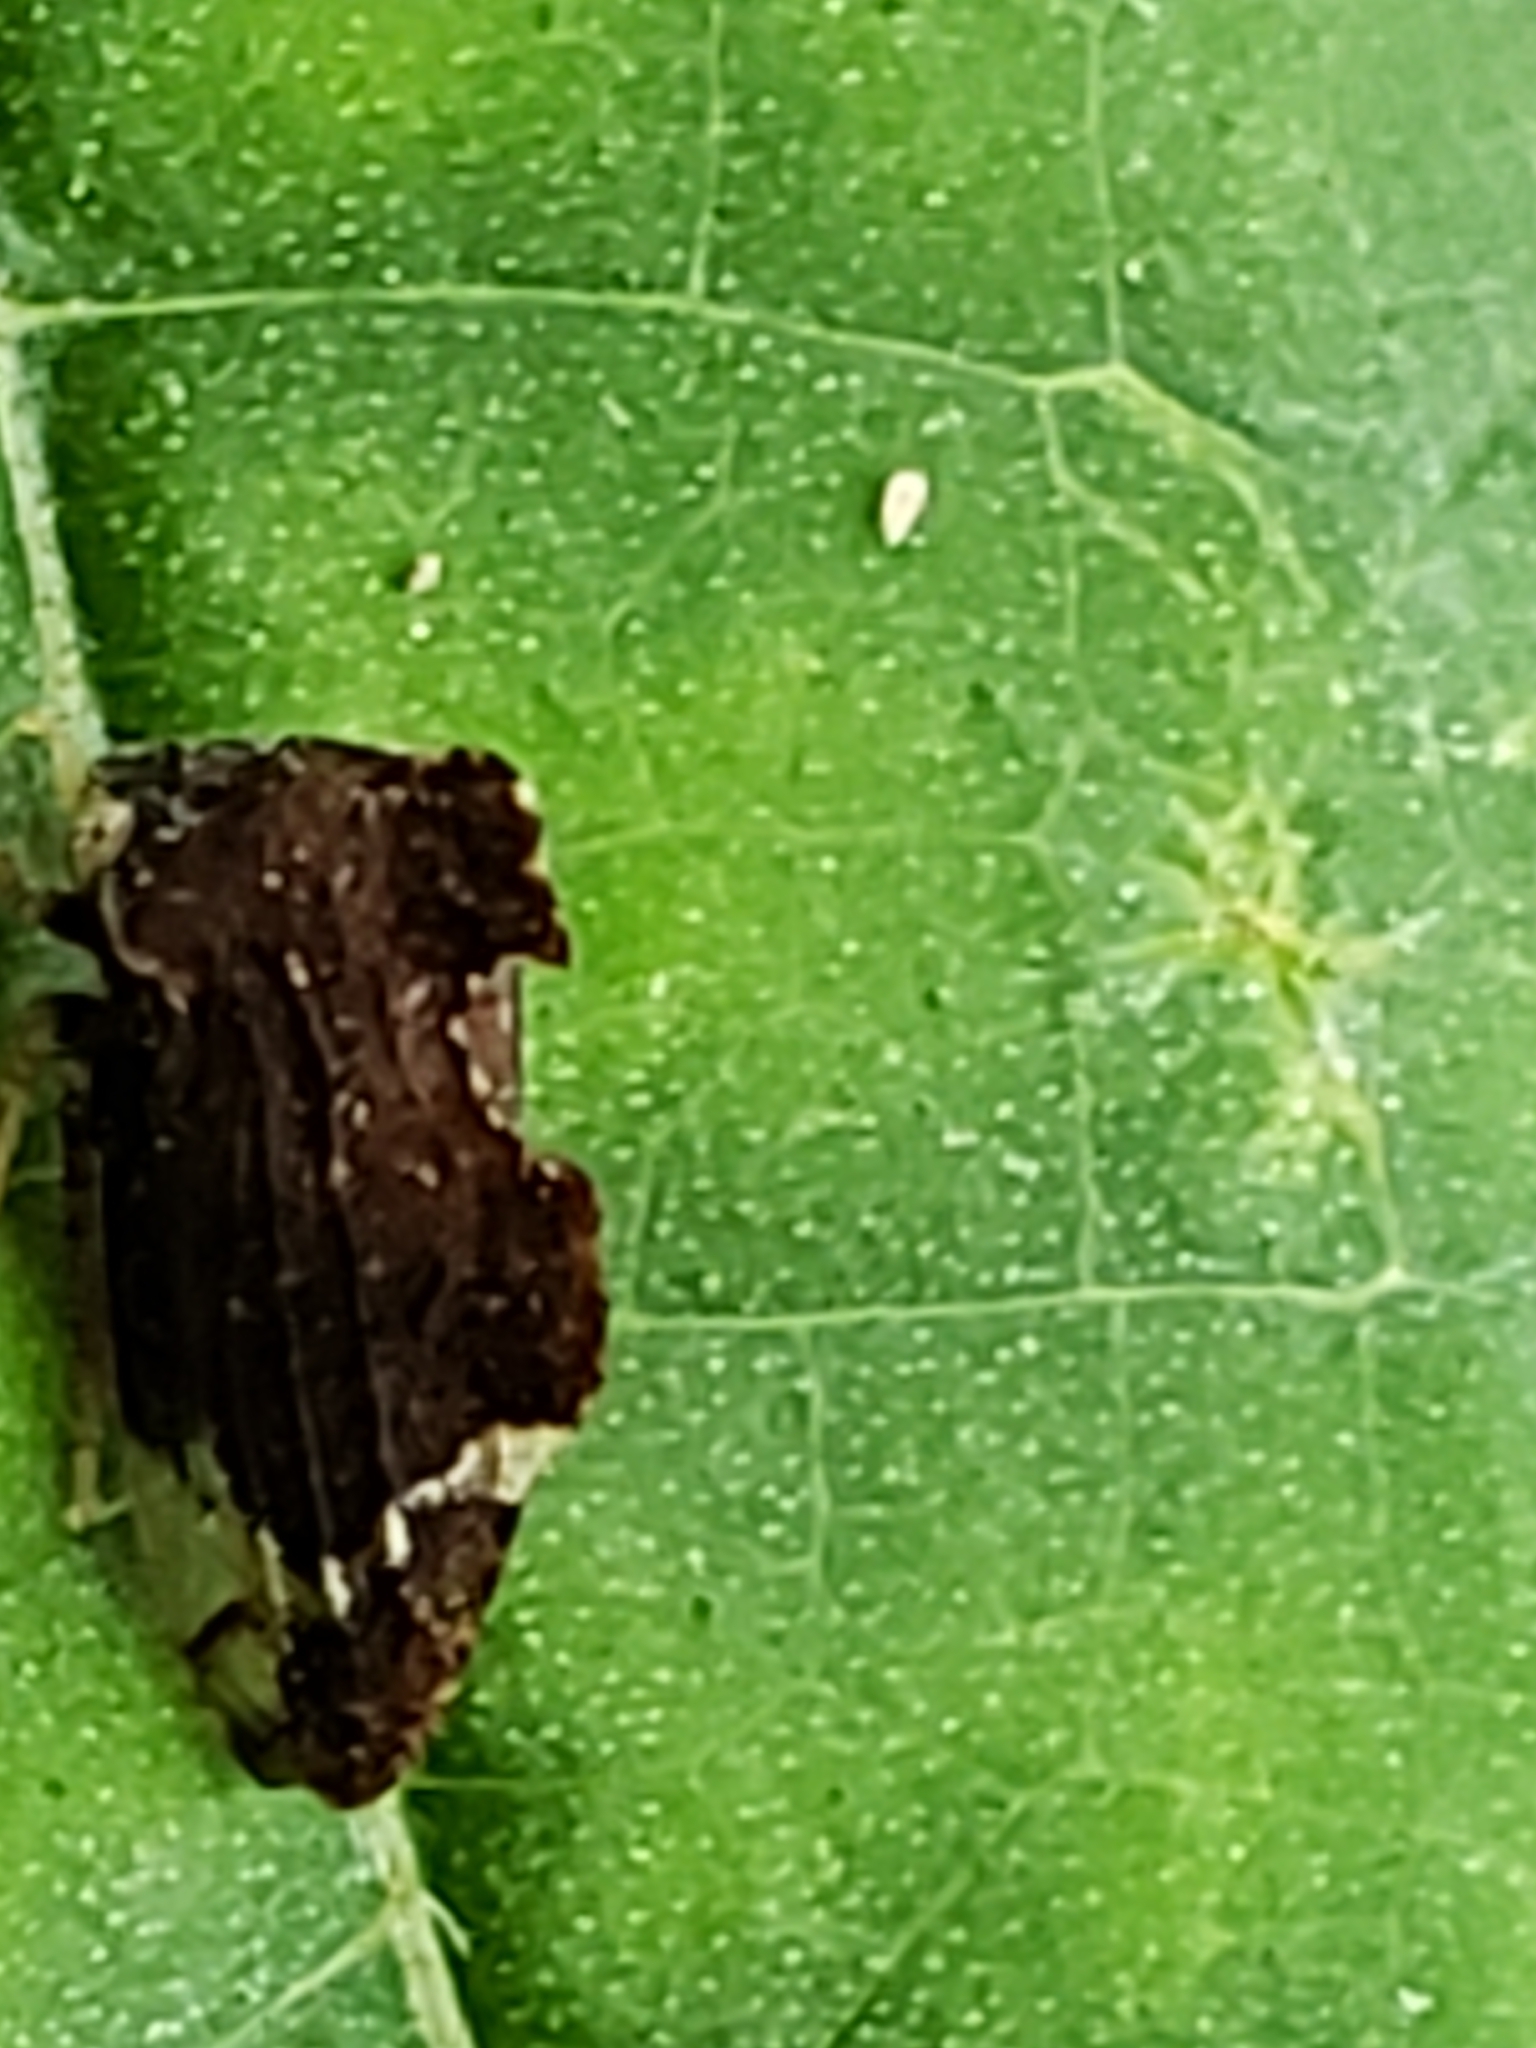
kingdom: Animalia
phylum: Arthropoda
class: Insecta
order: Hemiptera
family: Membracidae
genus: Entylia
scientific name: Entylia carinata
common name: Keeled treehopper
